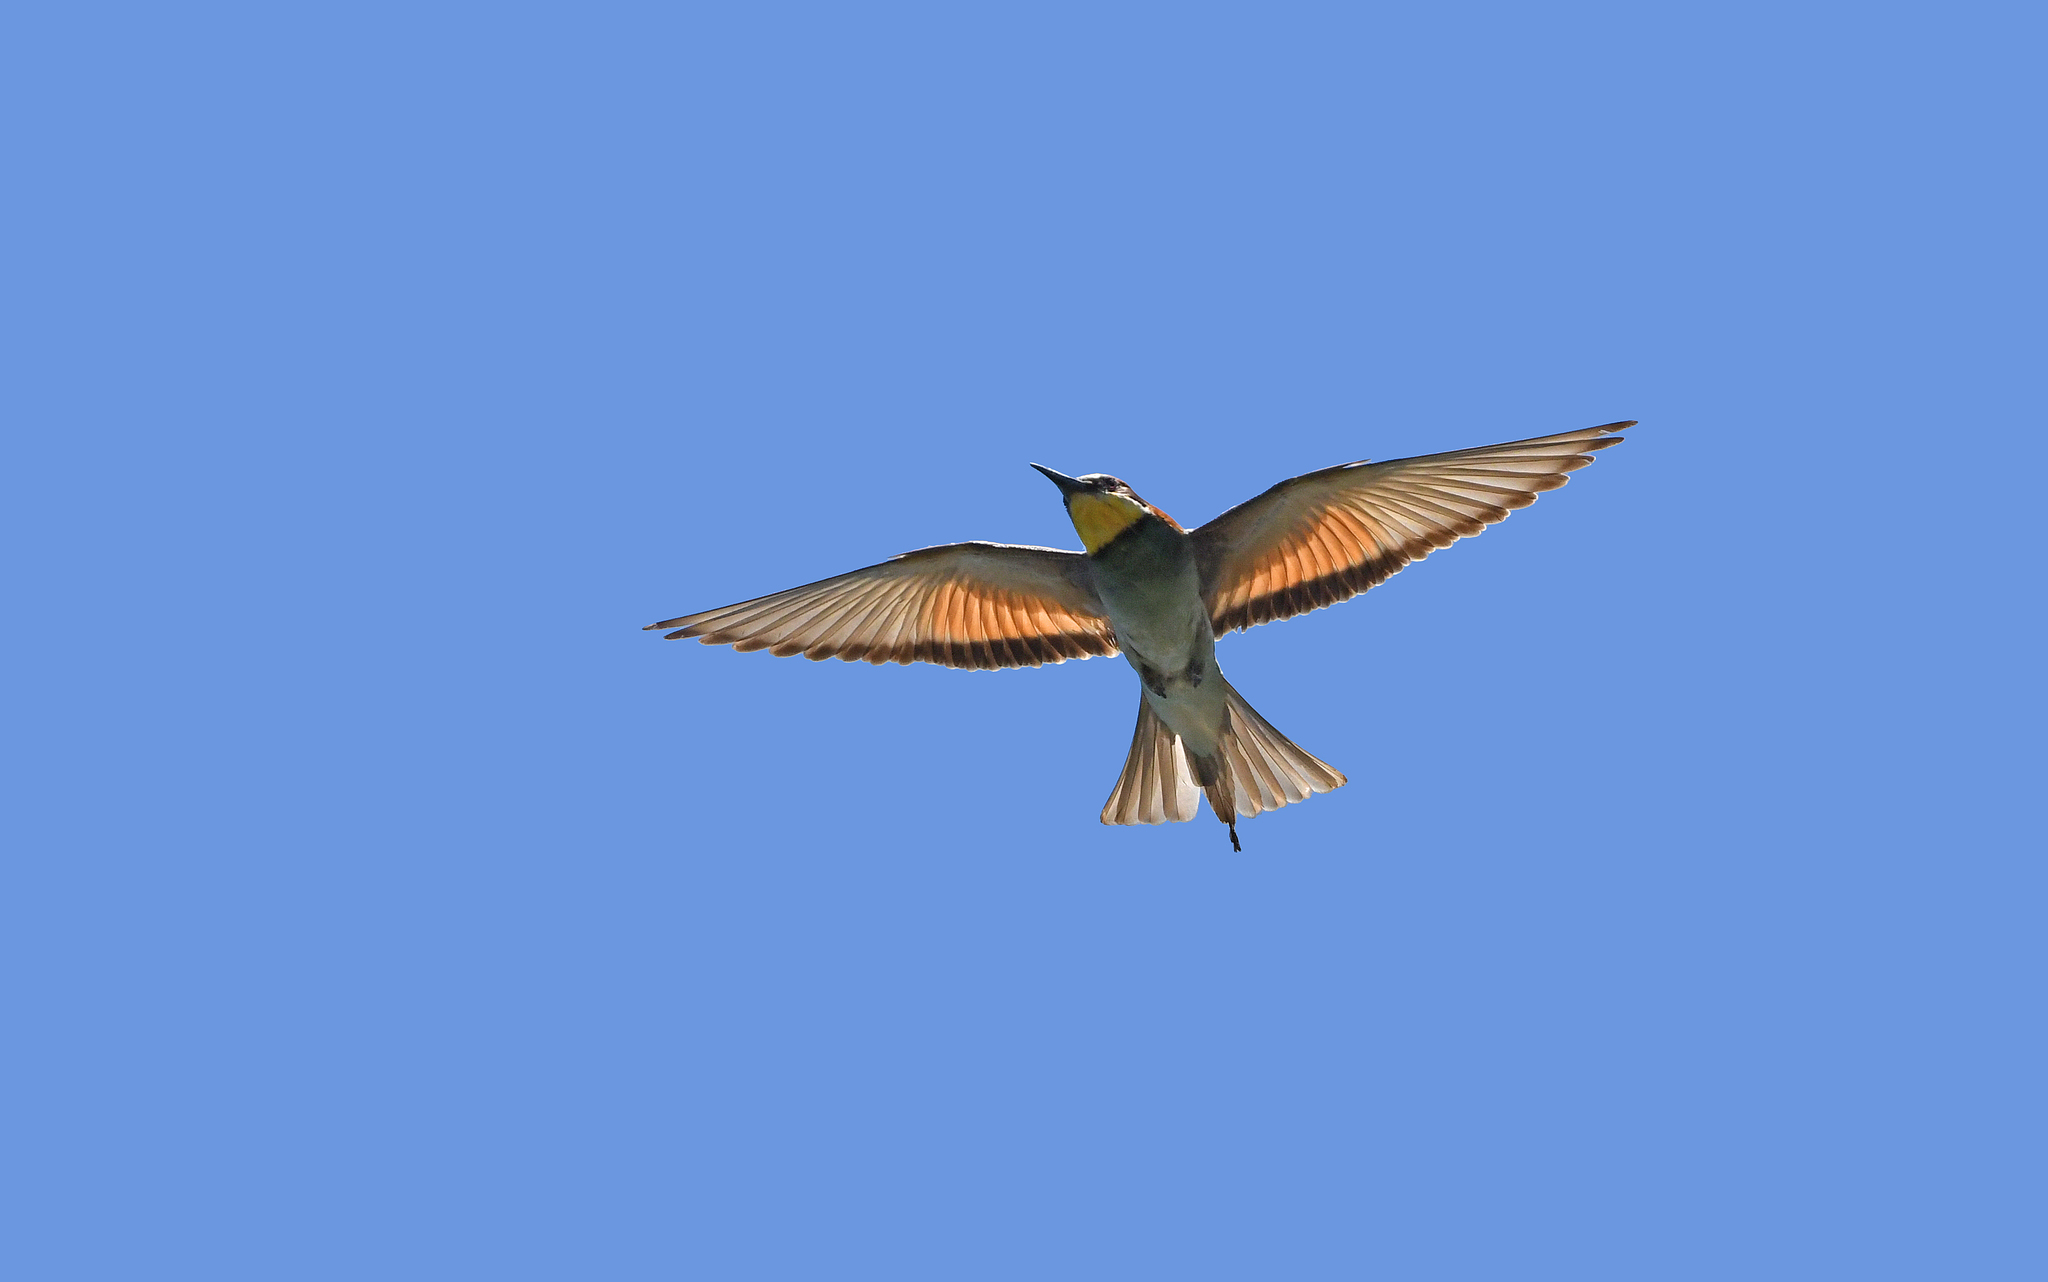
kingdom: Animalia
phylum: Chordata
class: Aves
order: Coraciiformes
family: Meropidae
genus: Merops
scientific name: Merops apiaster
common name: European bee-eater
